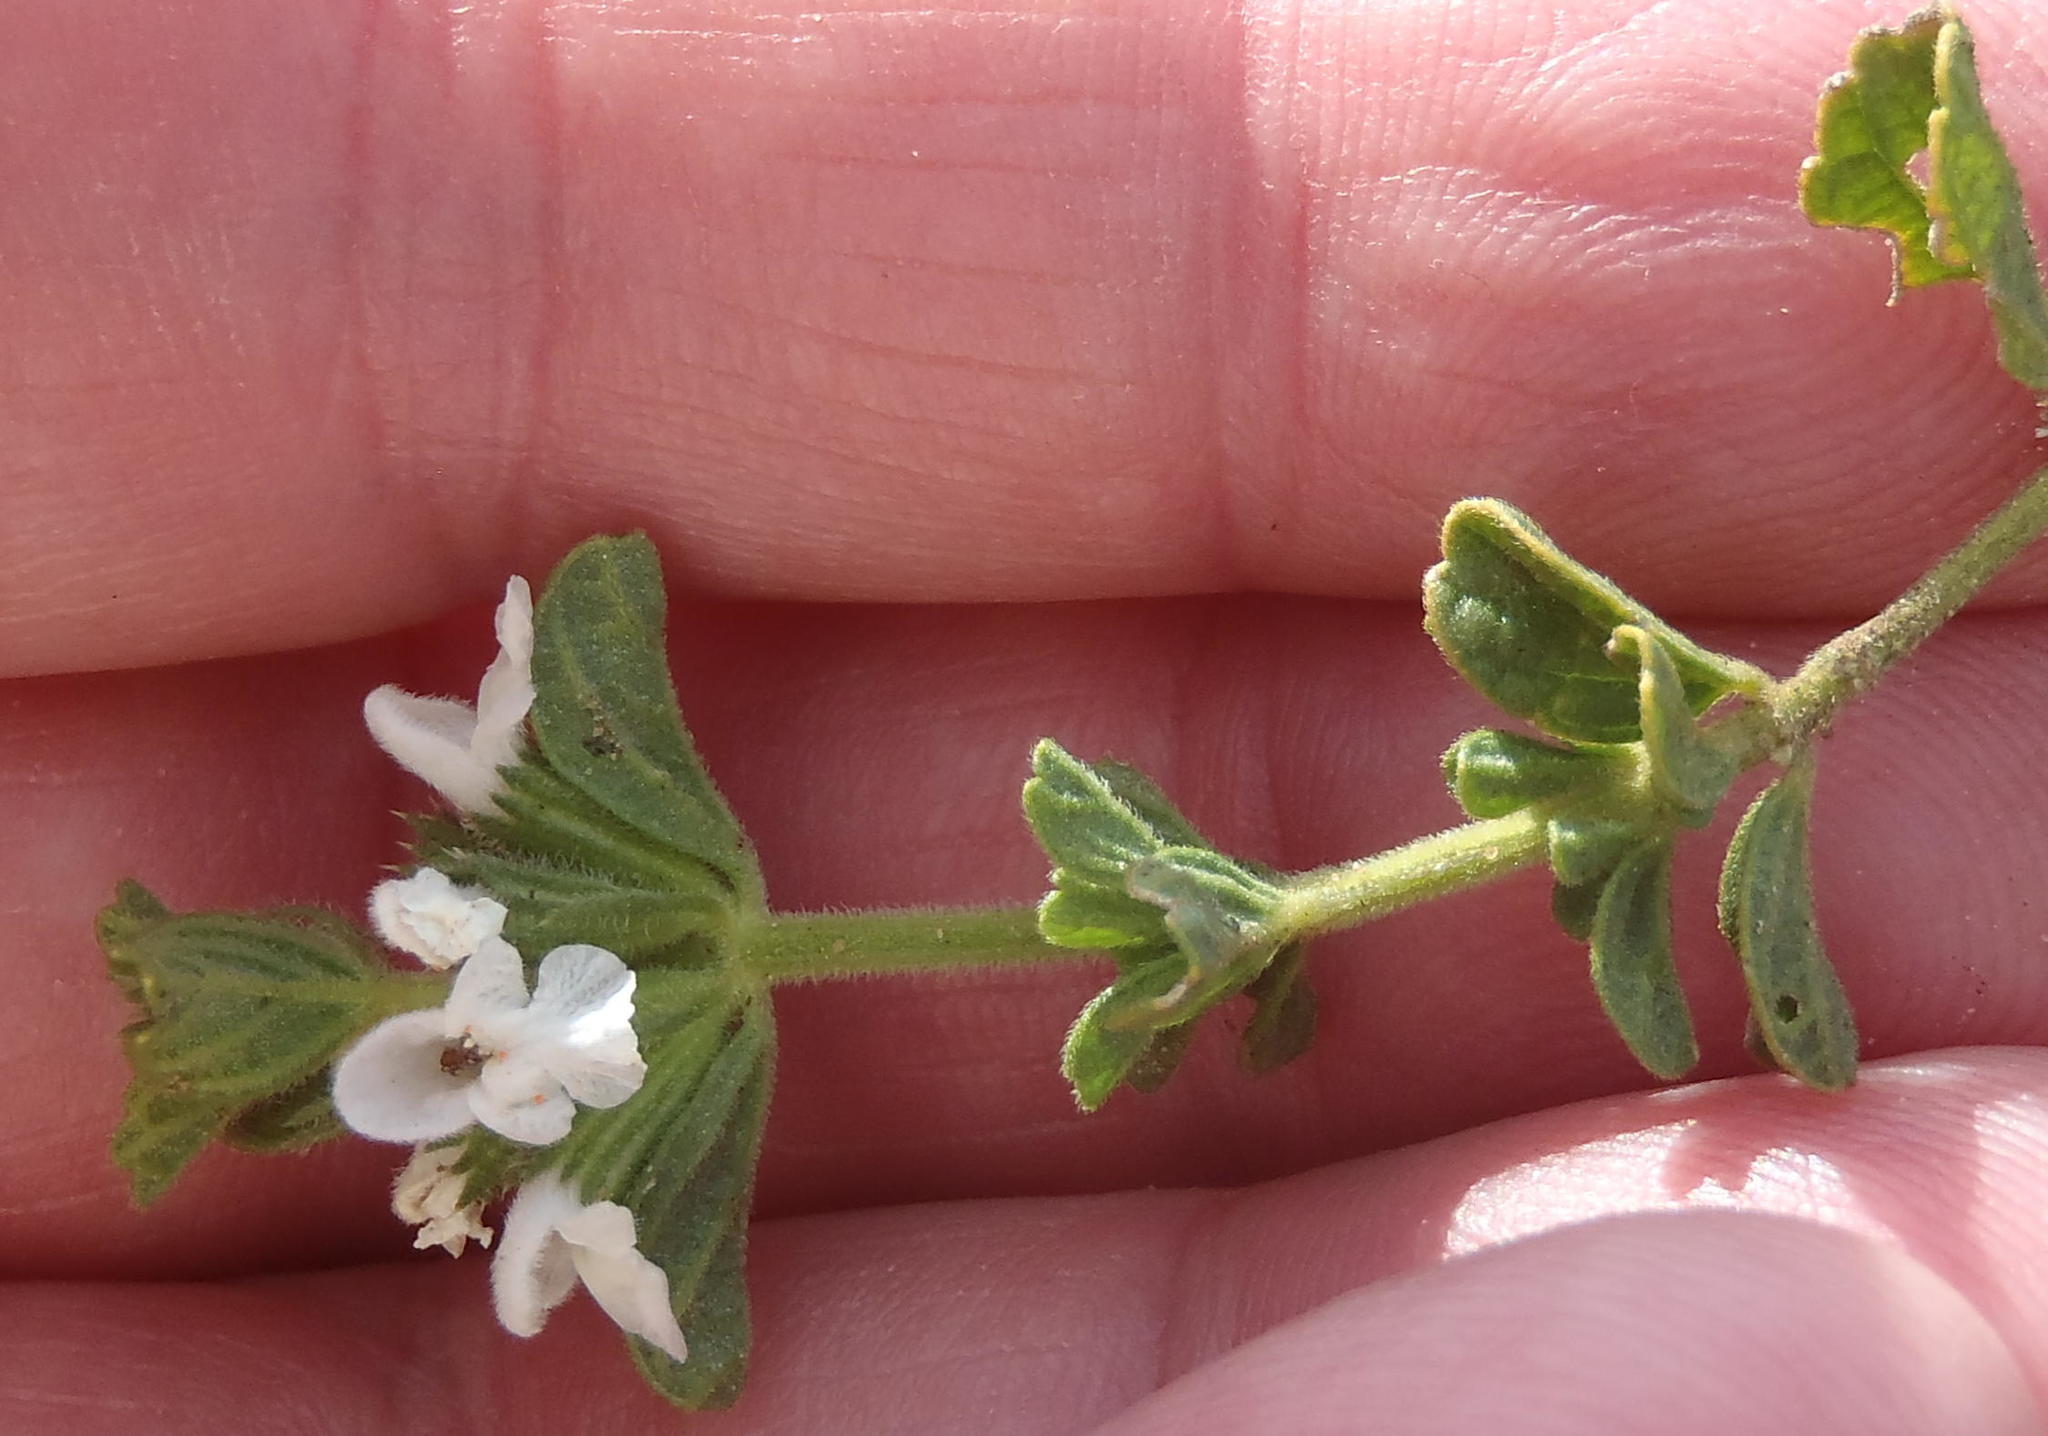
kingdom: Plantae
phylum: Tracheophyta
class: Magnoliopsida
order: Lamiales
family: Lamiaceae
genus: Acrotome
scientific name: Acrotome hispida
